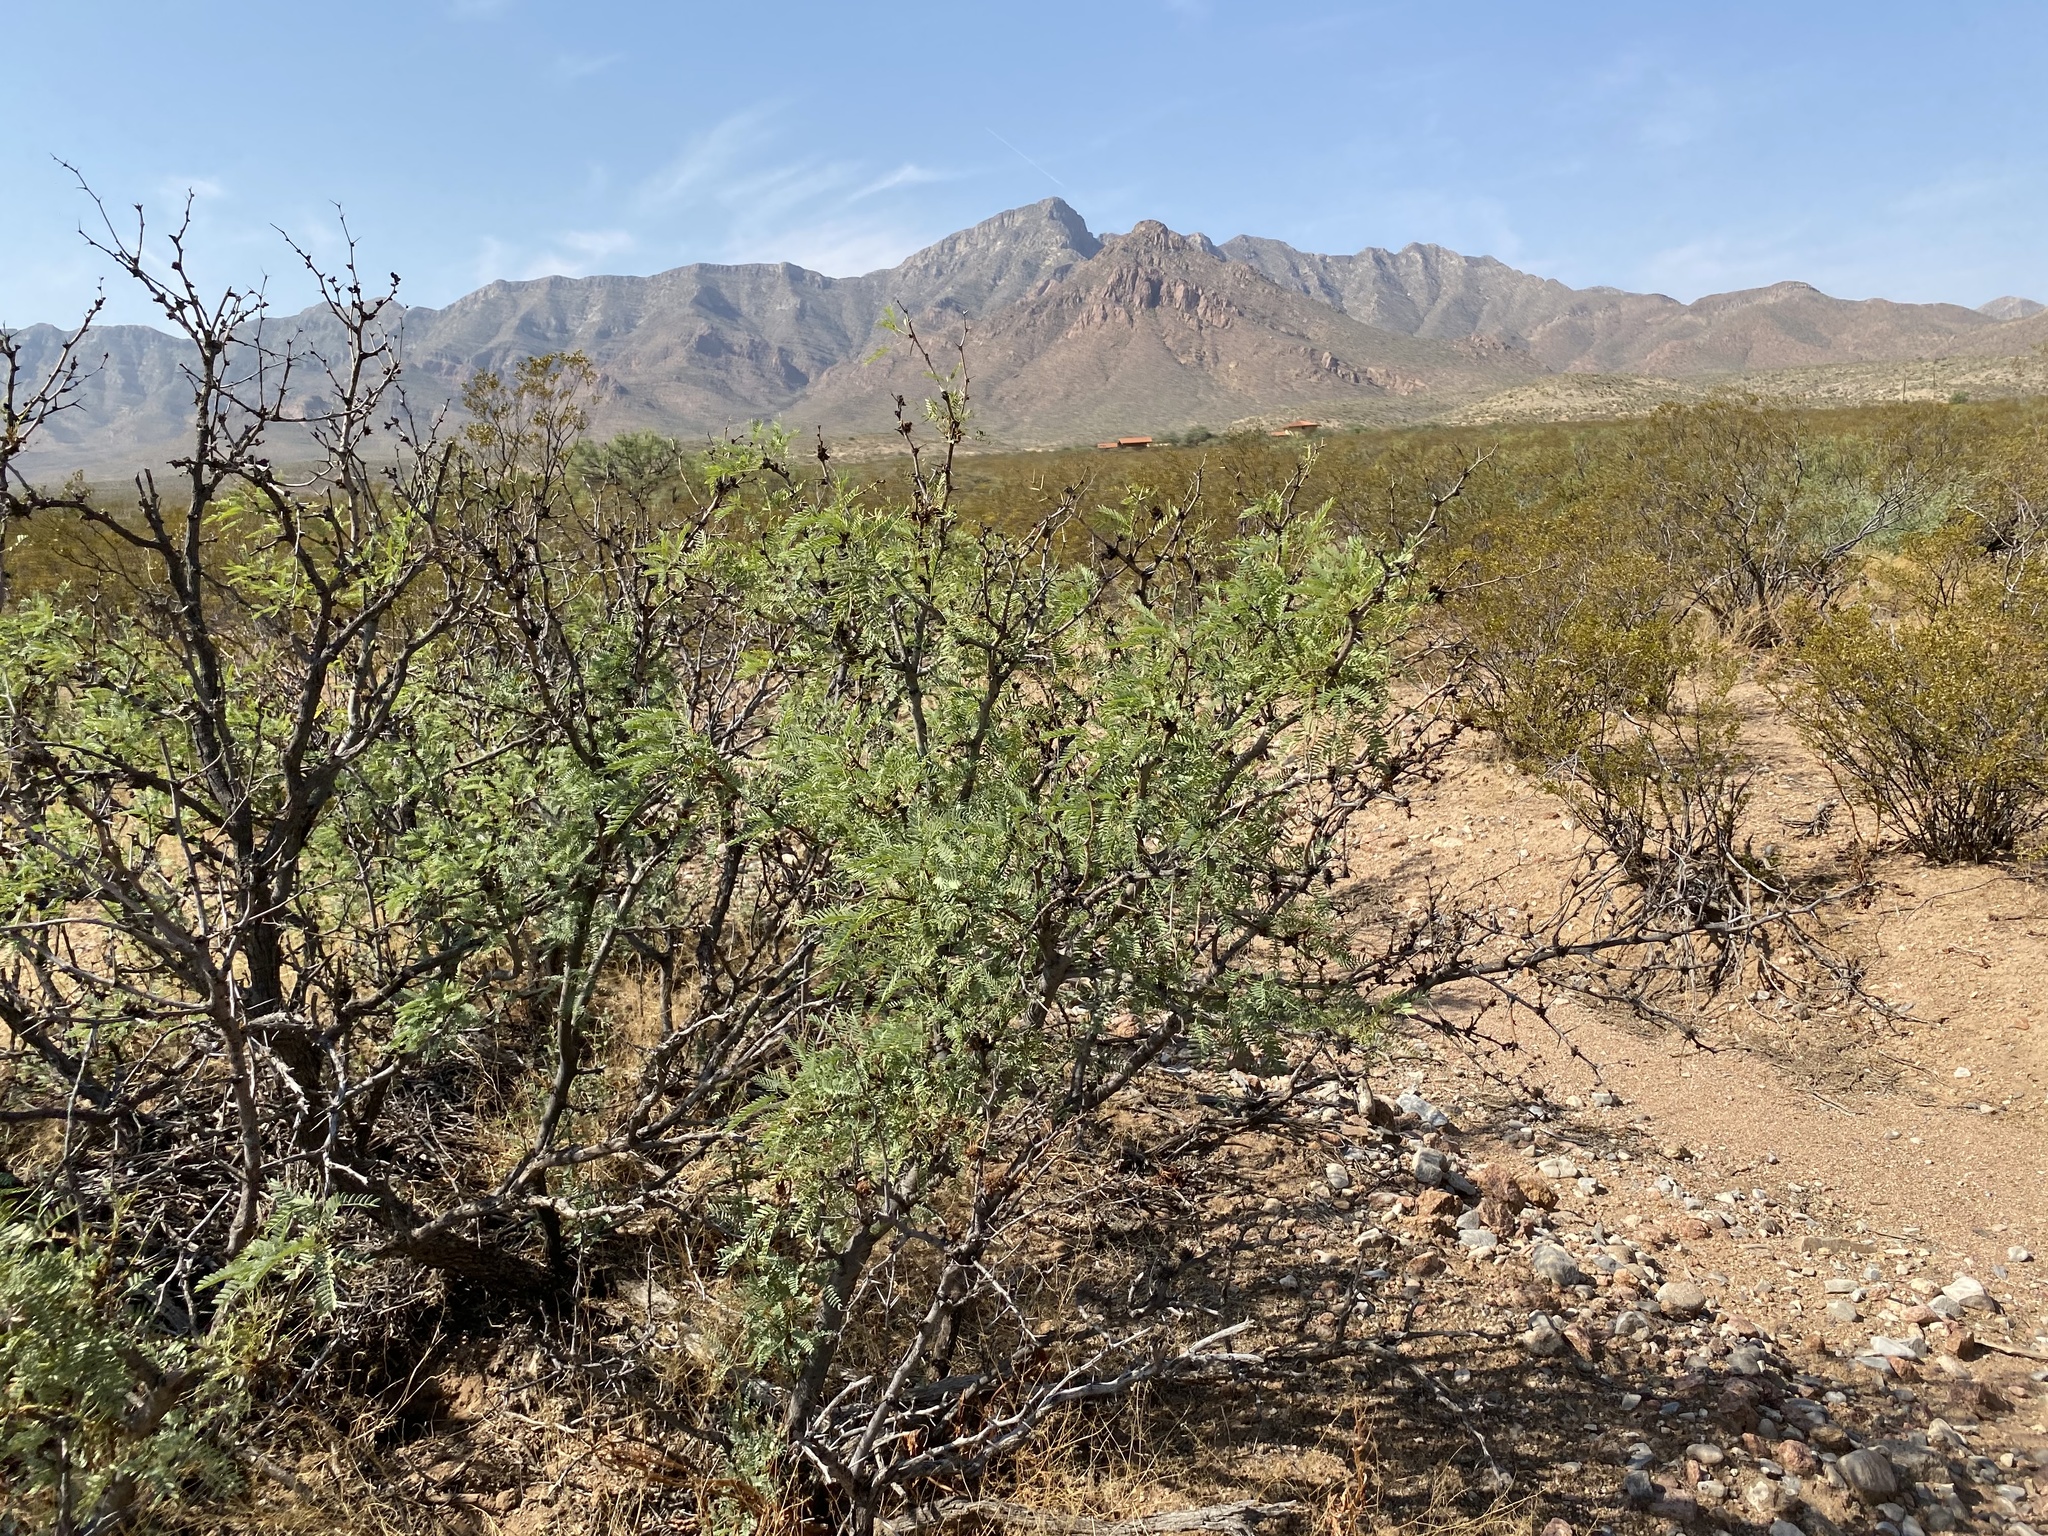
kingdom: Plantae
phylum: Tracheophyta
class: Magnoliopsida
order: Fabales
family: Fabaceae
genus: Prosopis
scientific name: Prosopis glandulosa
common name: Honey mesquite
